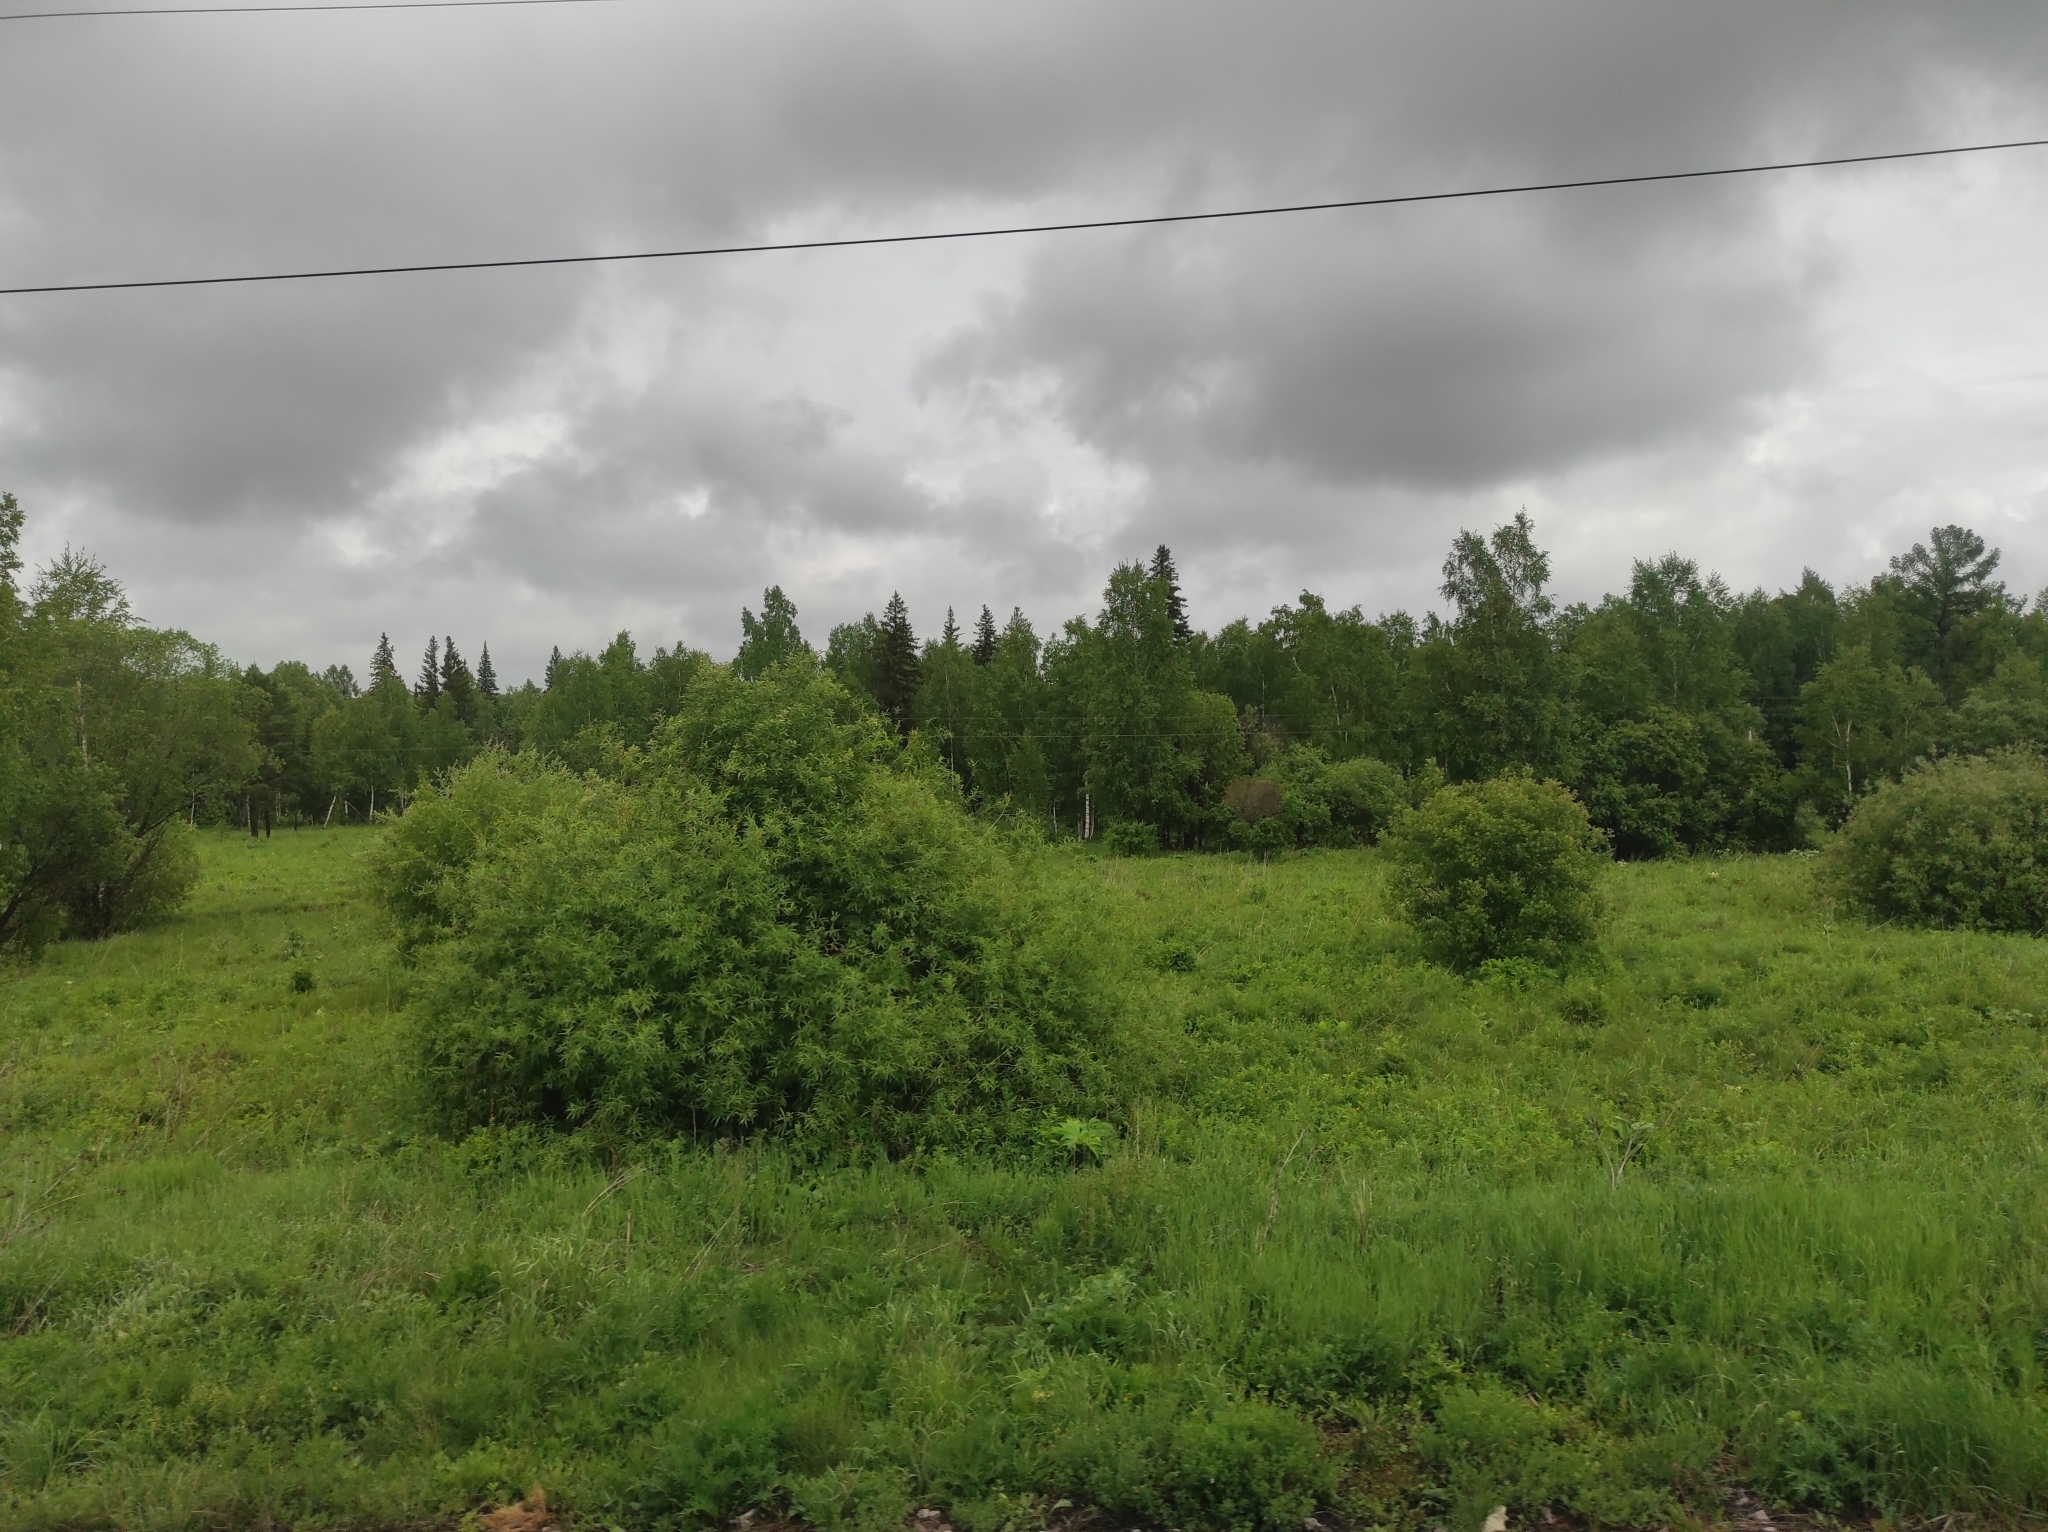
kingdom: Plantae
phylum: Tracheophyta
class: Pinopsida
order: Pinales
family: Pinaceae
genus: Picea
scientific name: Picea obovata
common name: Siberian spruce
